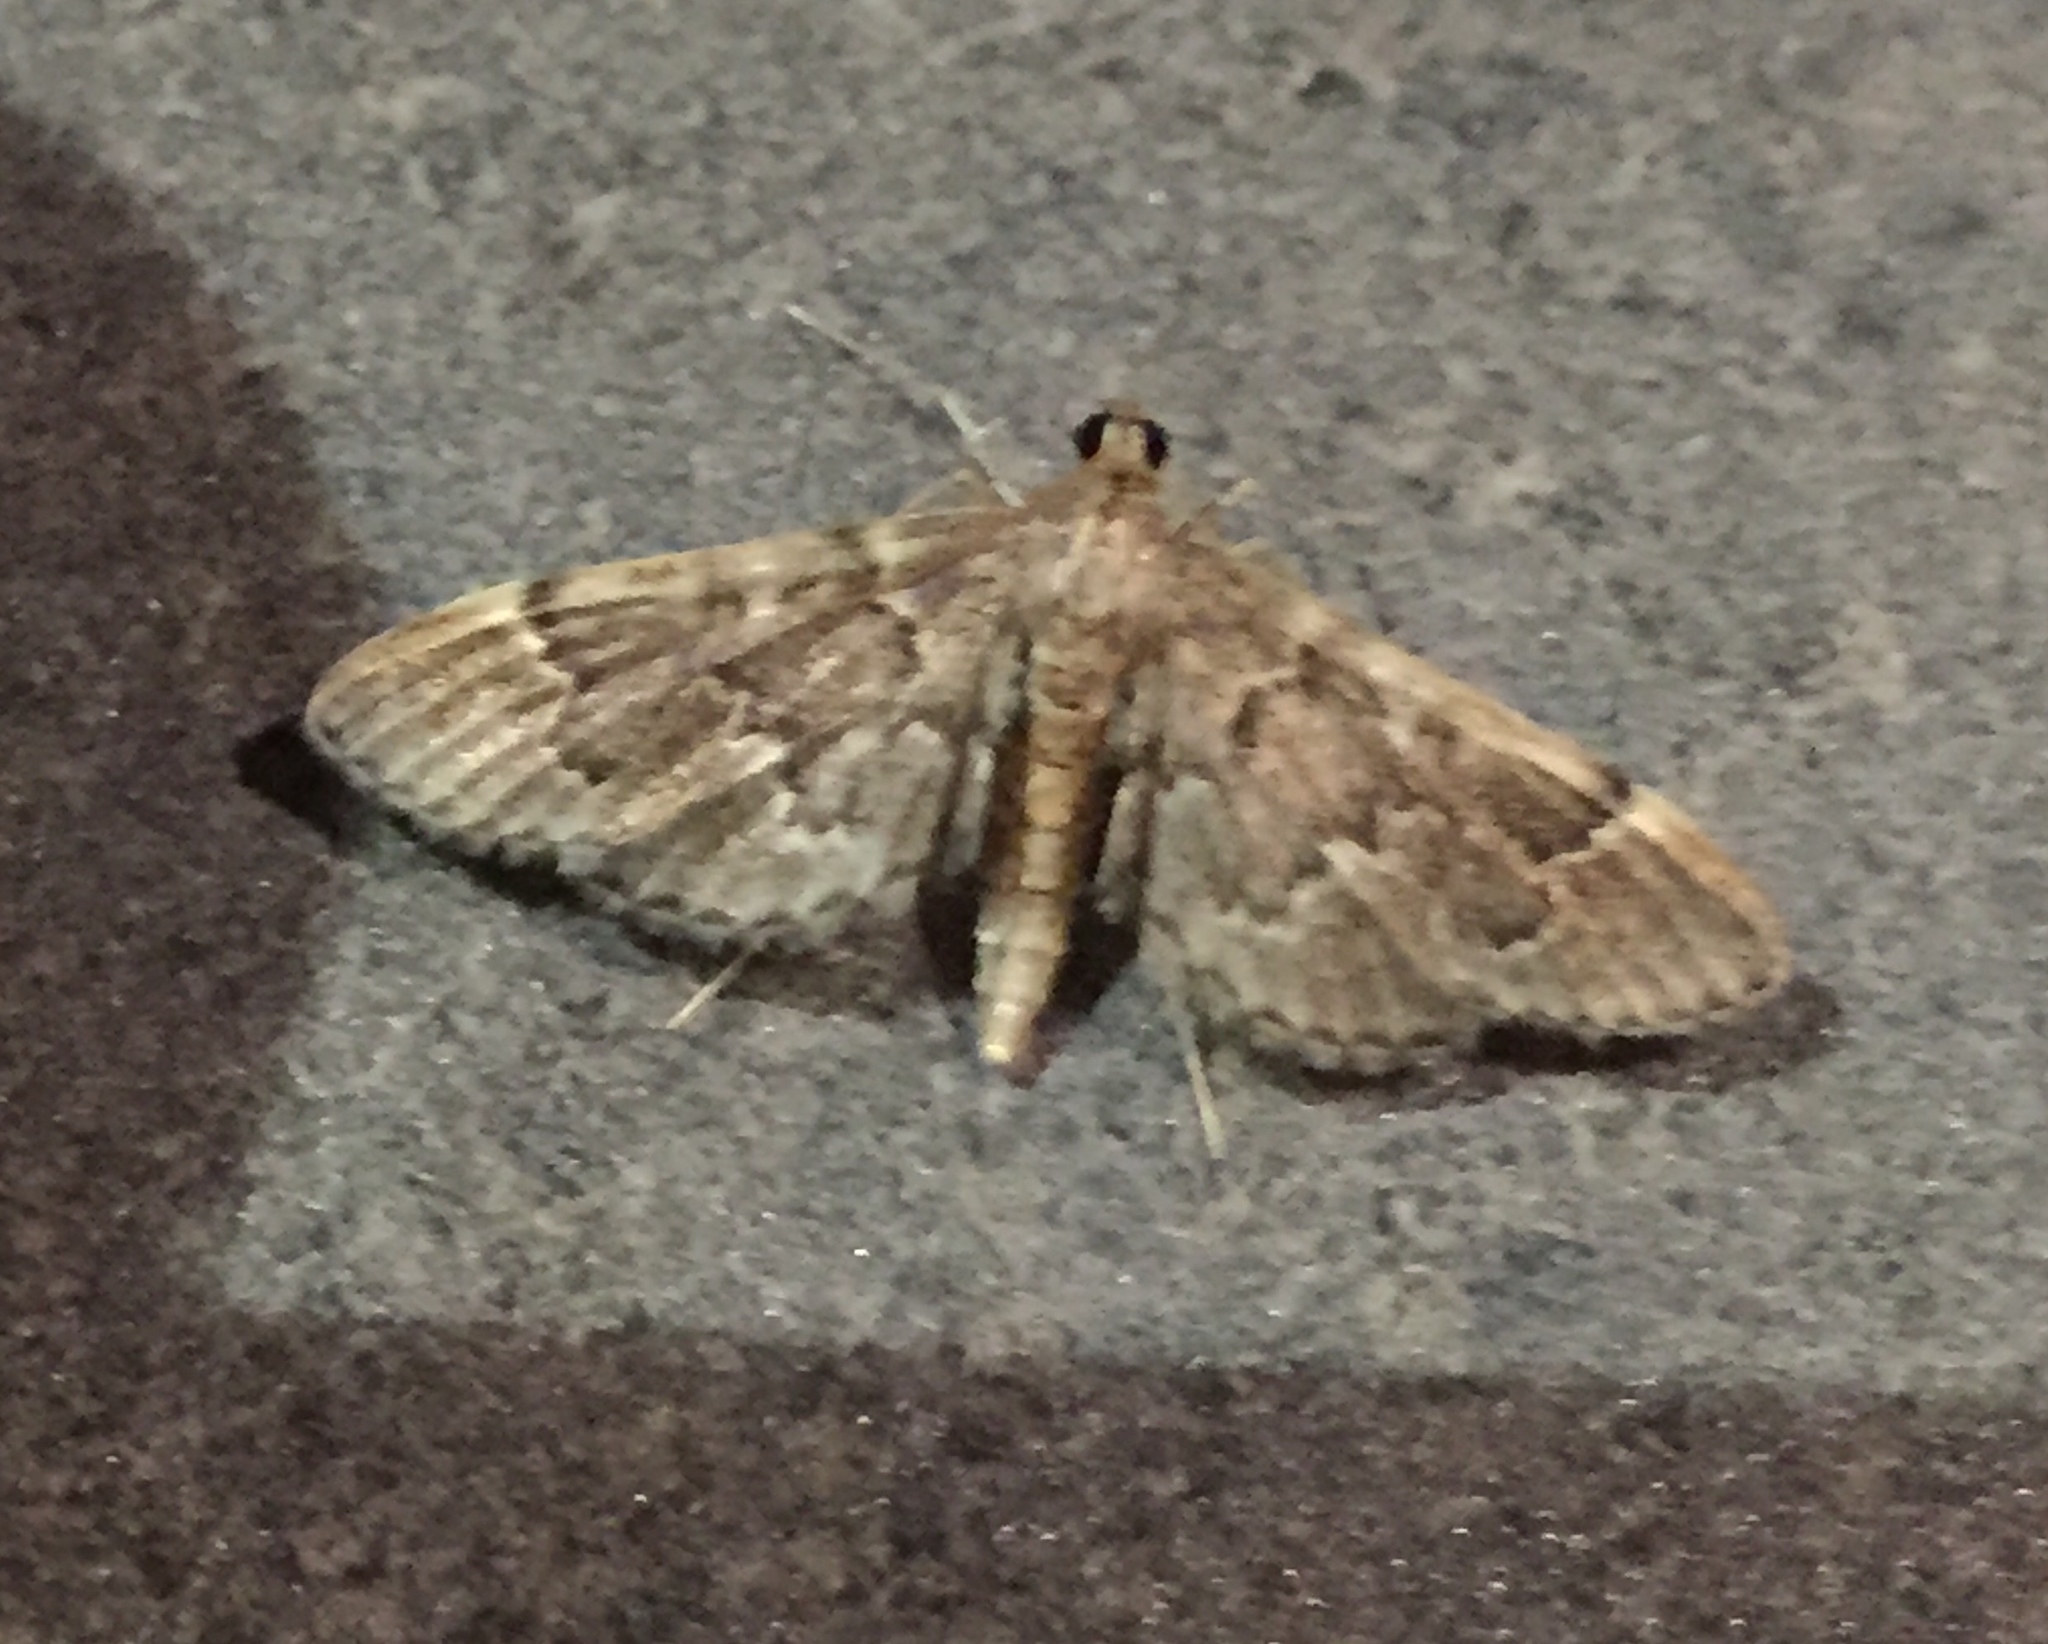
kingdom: Animalia
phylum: Arthropoda
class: Insecta
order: Lepidoptera
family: Crambidae
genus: Duponchelia
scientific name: Duponchelia lanceolalis
